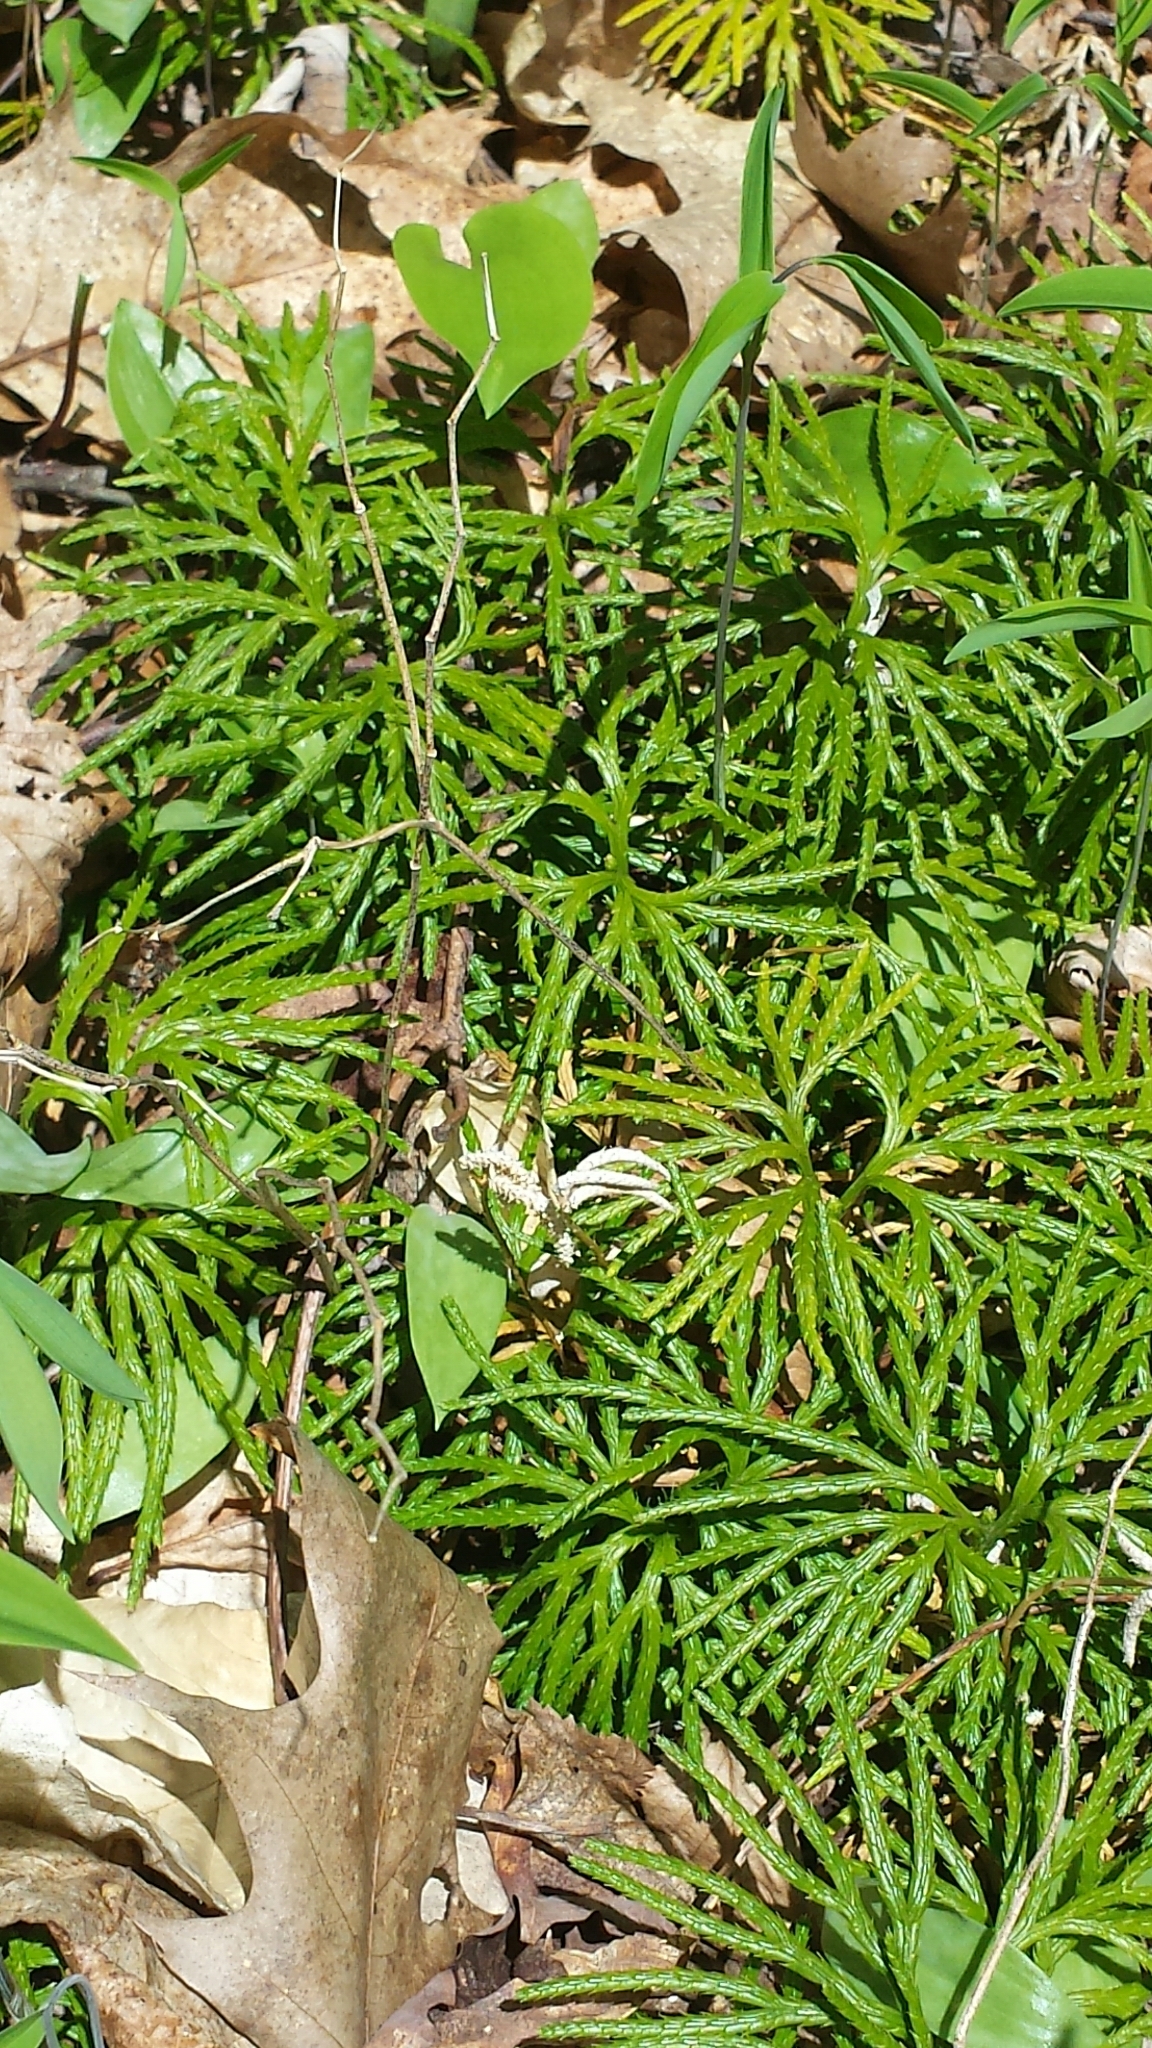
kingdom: Plantae
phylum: Tracheophyta
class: Lycopodiopsida
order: Lycopodiales
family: Lycopodiaceae
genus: Diphasiastrum
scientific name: Diphasiastrum digitatum
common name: Southern running-pine
